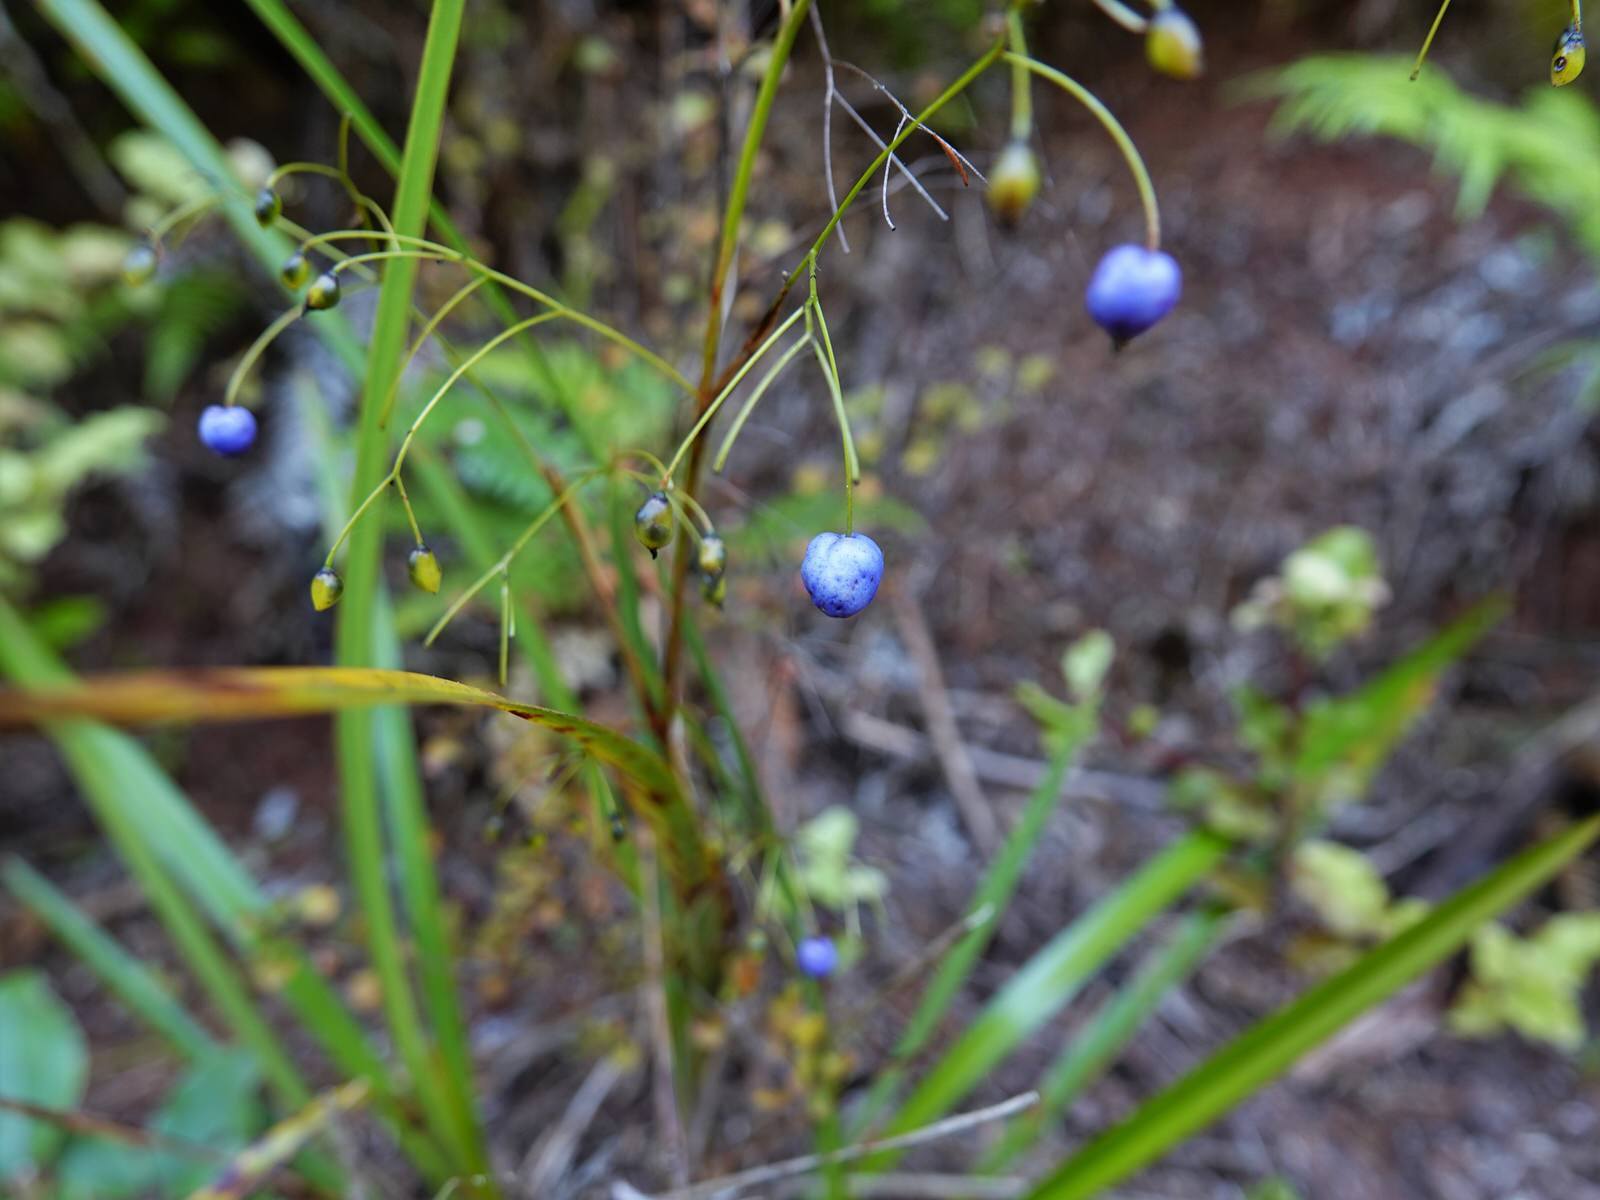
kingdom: Plantae
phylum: Tracheophyta
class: Liliopsida
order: Asparagales
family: Asphodelaceae
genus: Dianella
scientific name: Dianella nigra
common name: New zealand-blueberry
